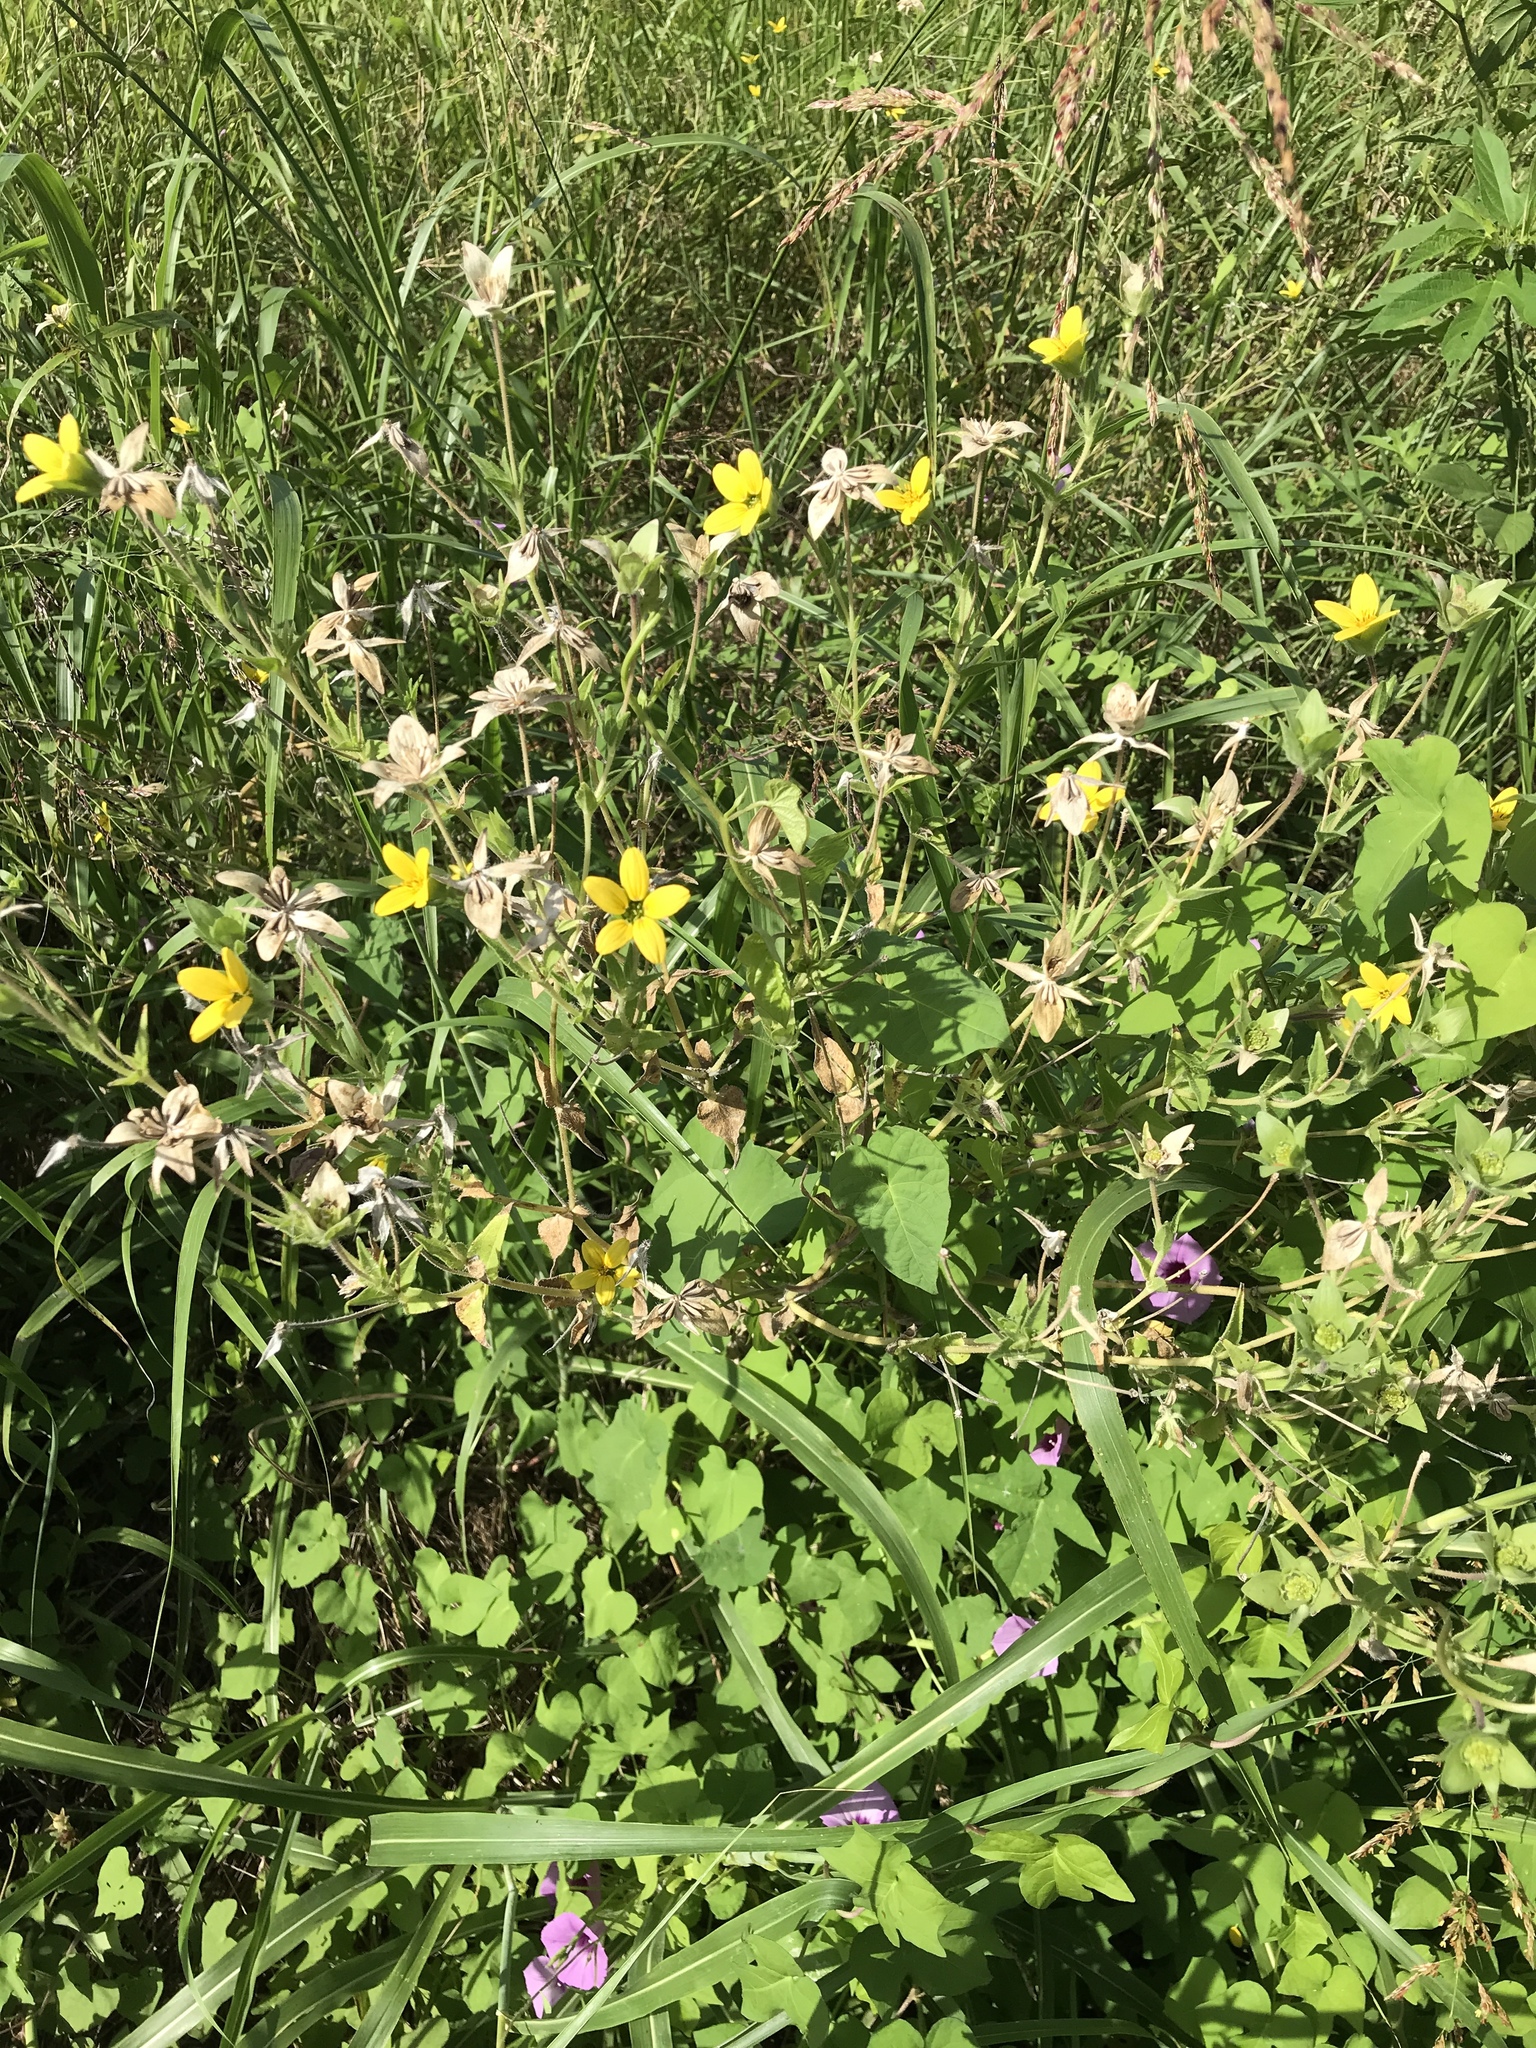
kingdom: Plantae
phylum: Tracheophyta
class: Magnoliopsida
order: Asterales
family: Asteraceae
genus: Lindheimera
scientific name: Lindheimera texana
